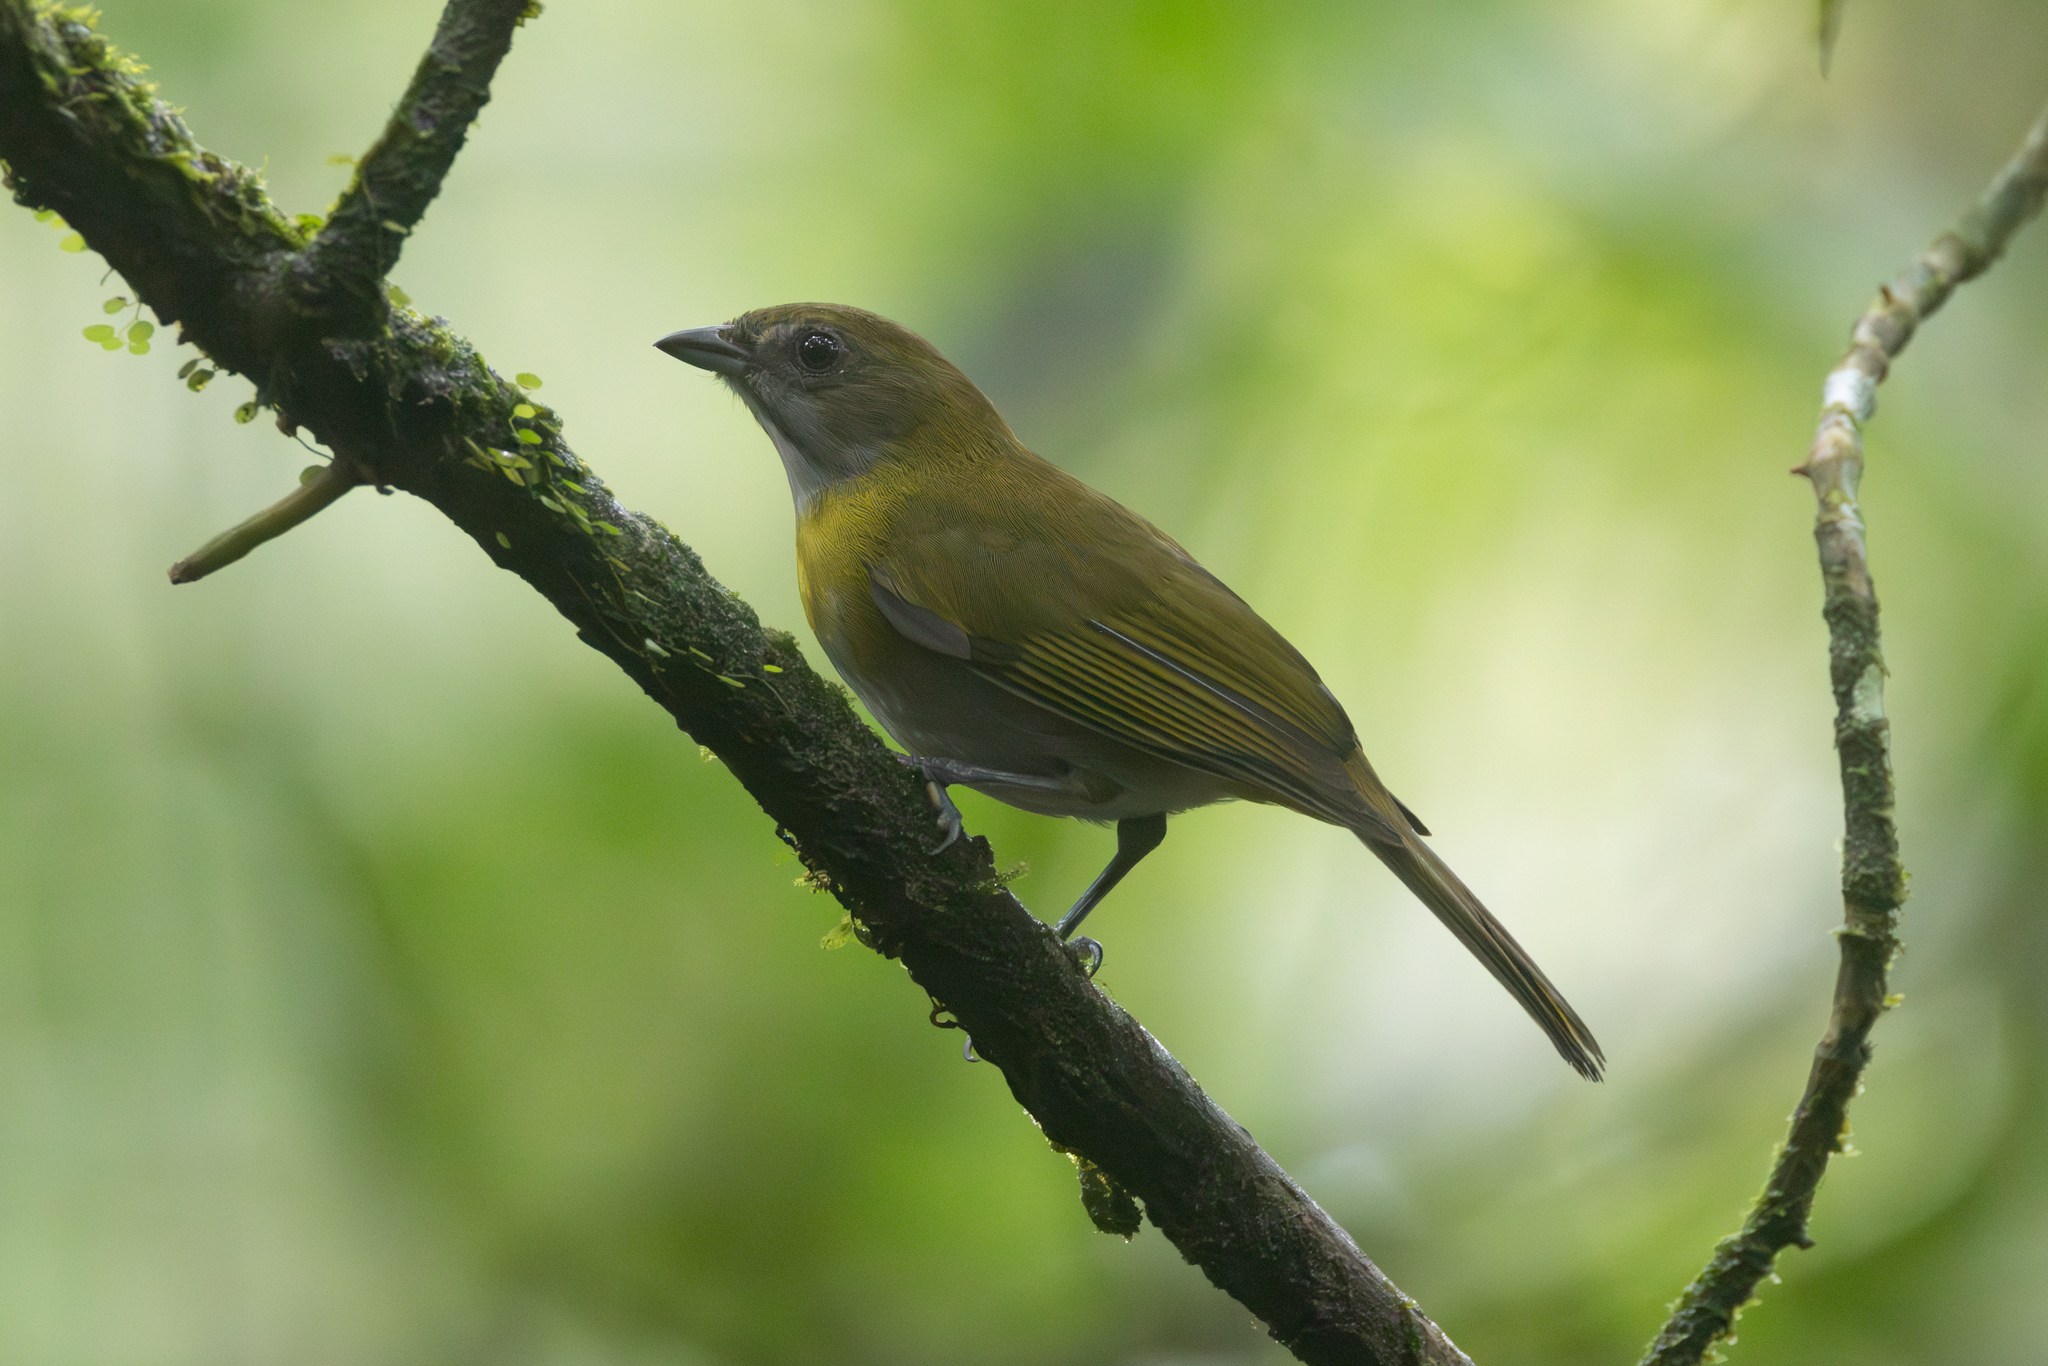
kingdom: Animalia
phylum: Chordata
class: Aves
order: Passeriformes
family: Passerellidae
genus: Chlorospingus
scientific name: Chlorospingus canigularis
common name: Ashy-throated bush-tanager
